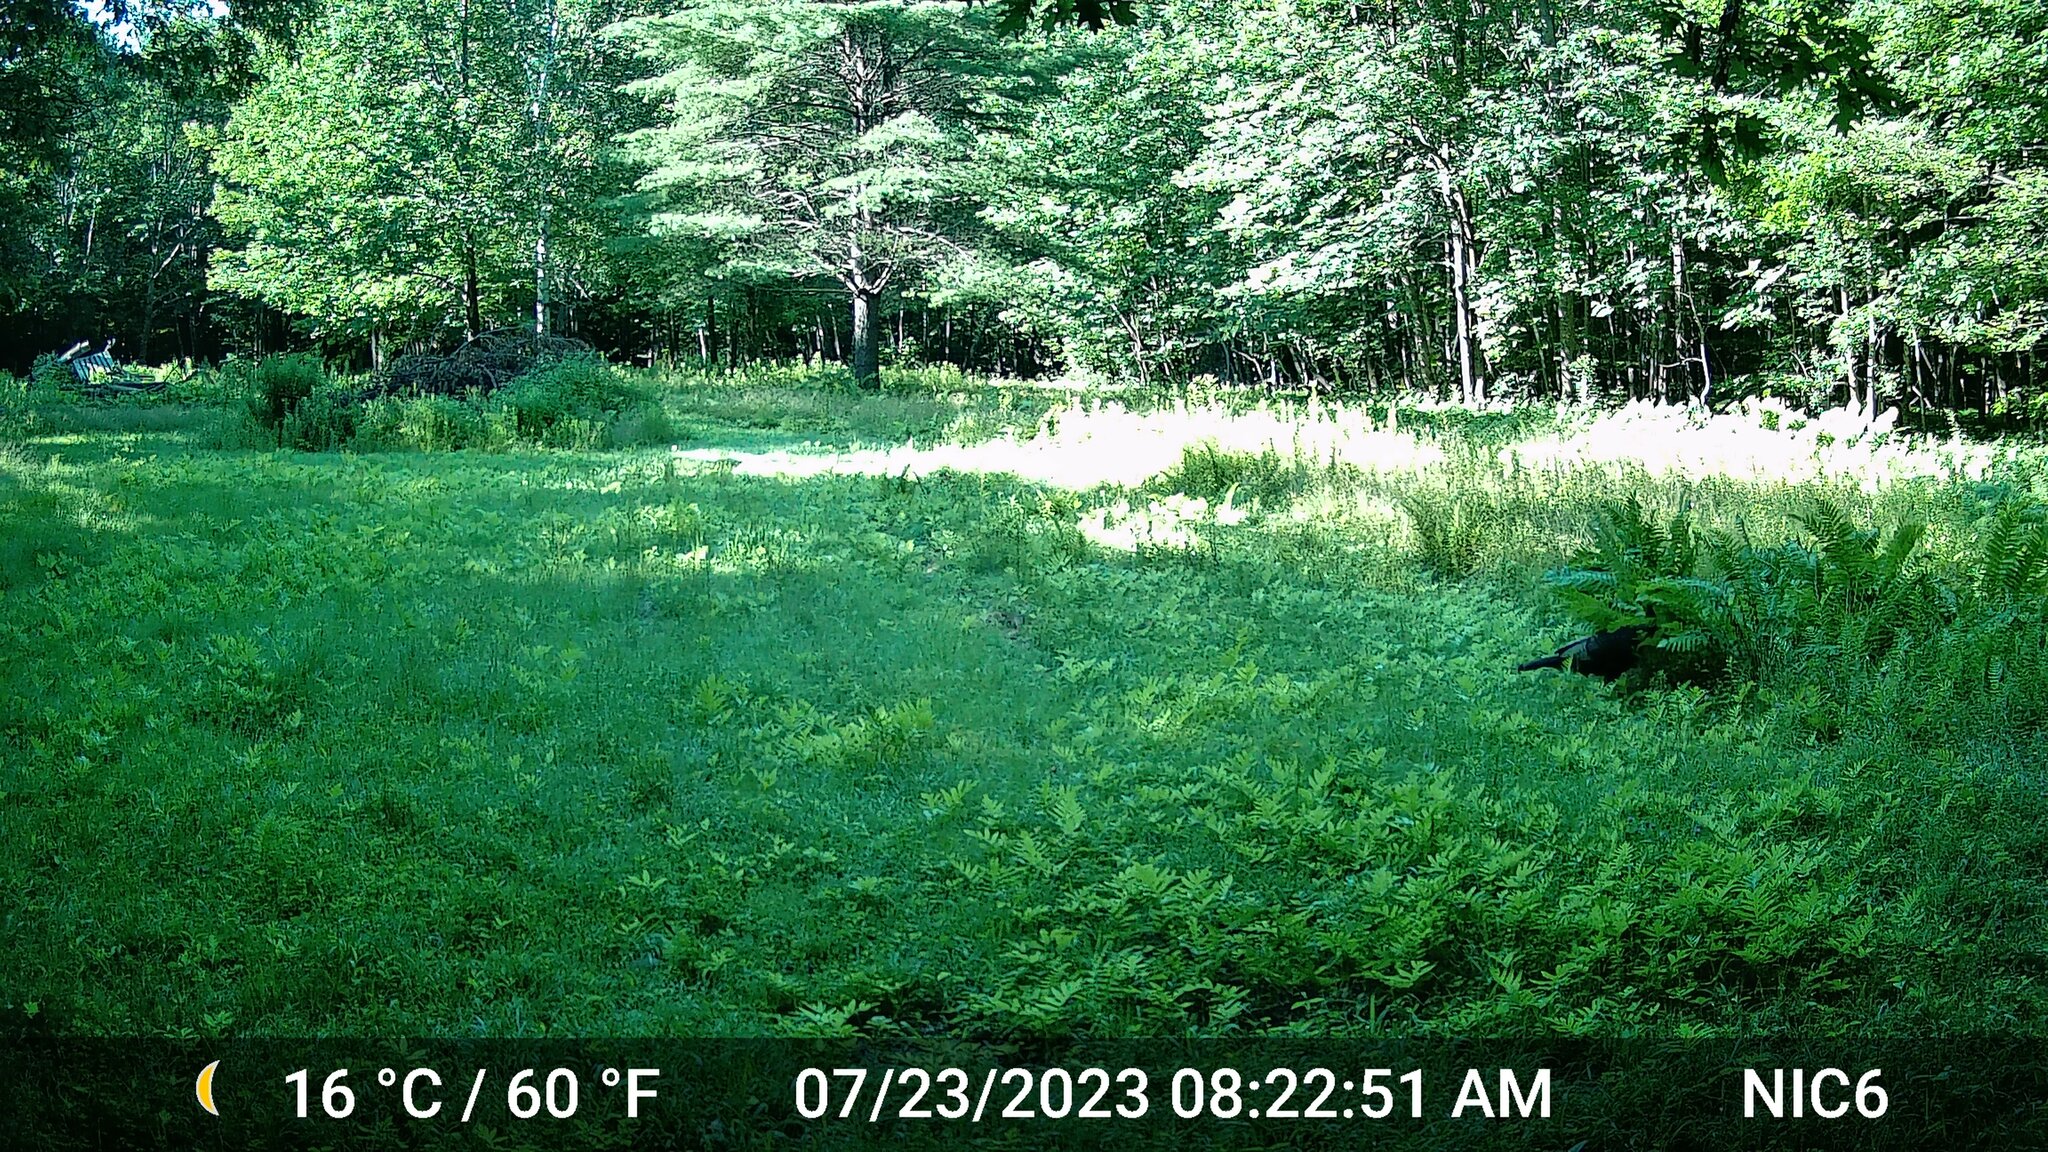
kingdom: Animalia
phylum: Chordata
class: Aves
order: Galliformes
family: Phasianidae
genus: Meleagris
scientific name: Meleagris gallopavo
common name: Wild turkey
